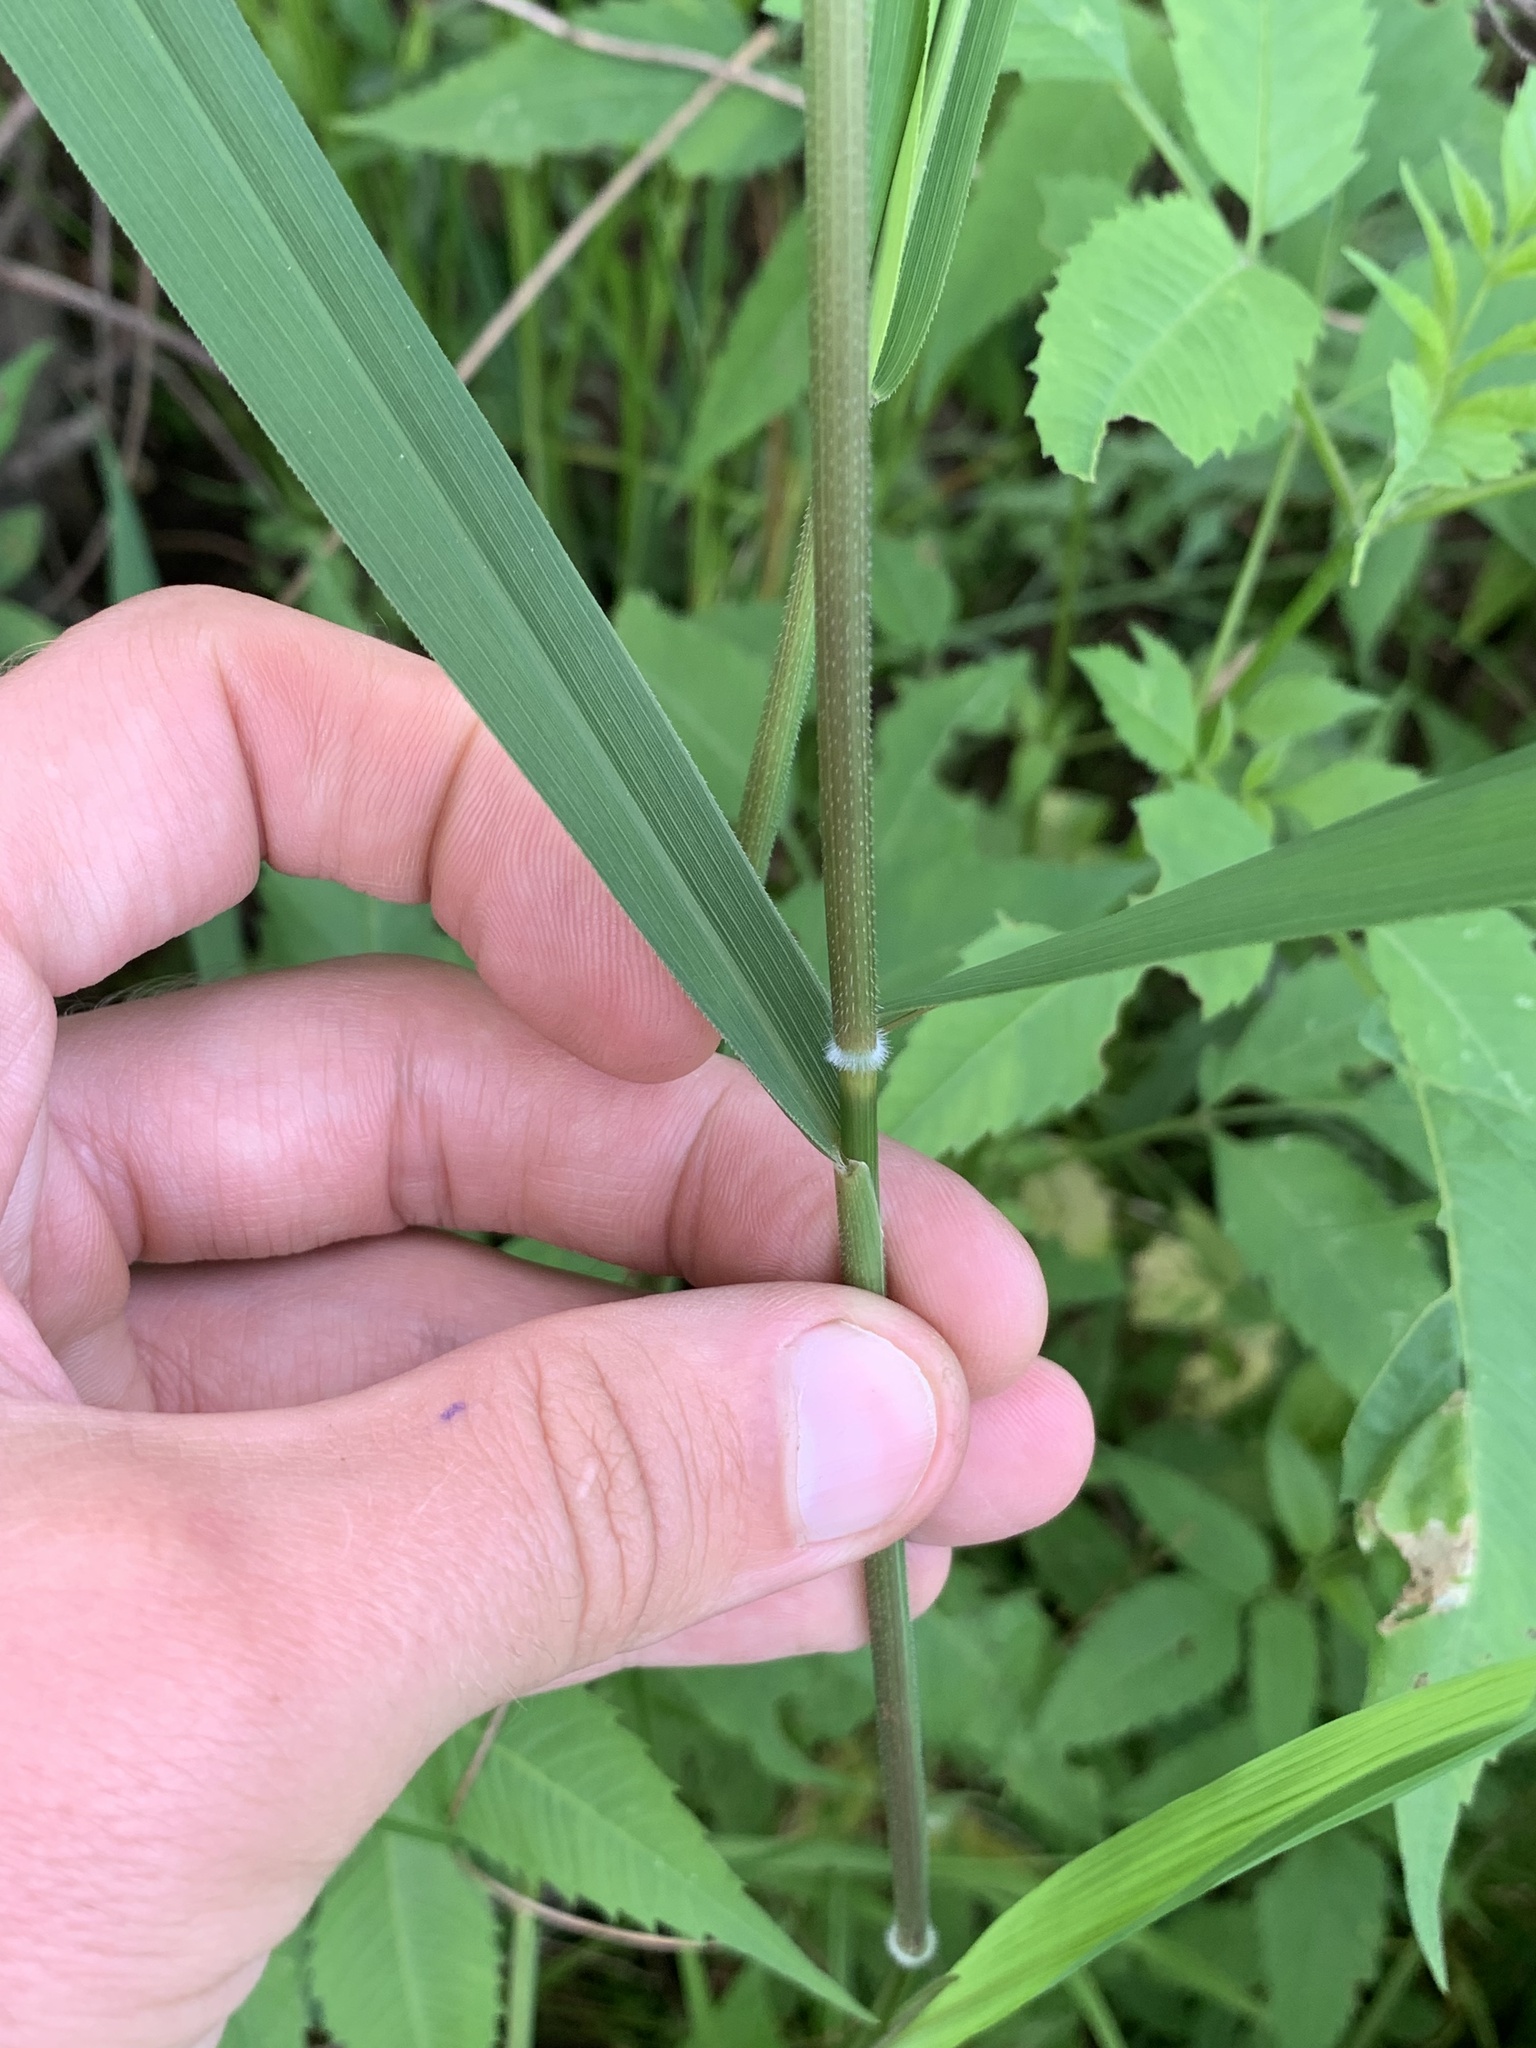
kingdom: Plantae
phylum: Tracheophyta
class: Liliopsida
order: Poales
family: Poaceae
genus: Leersia
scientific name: Leersia oryzoides
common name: Cut-grass
